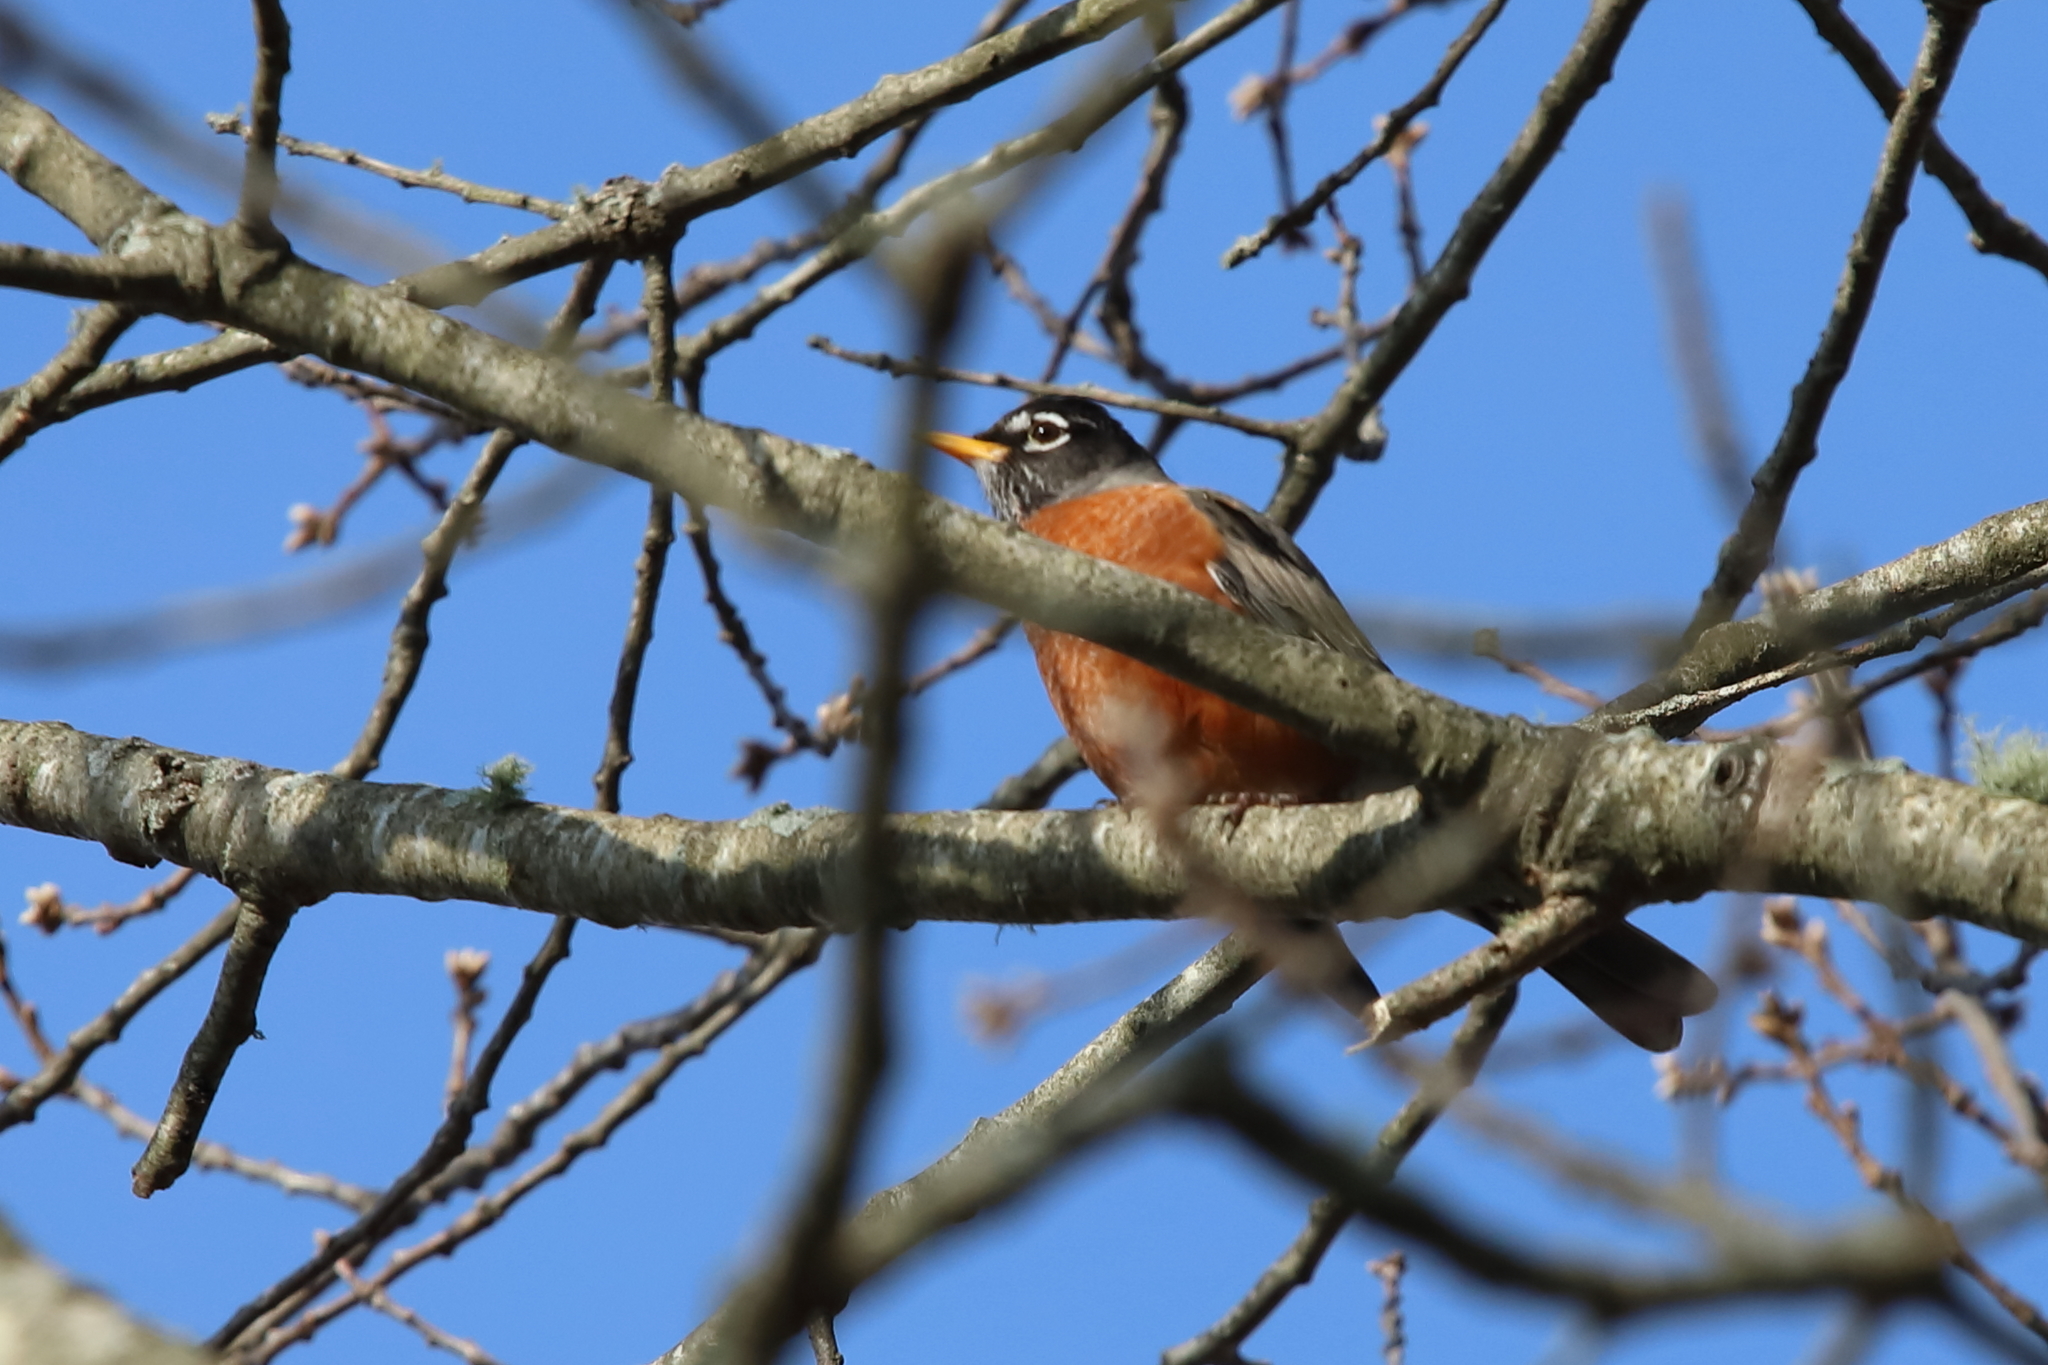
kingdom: Animalia
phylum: Chordata
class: Aves
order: Passeriformes
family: Turdidae
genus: Turdus
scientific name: Turdus migratorius
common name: American robin
